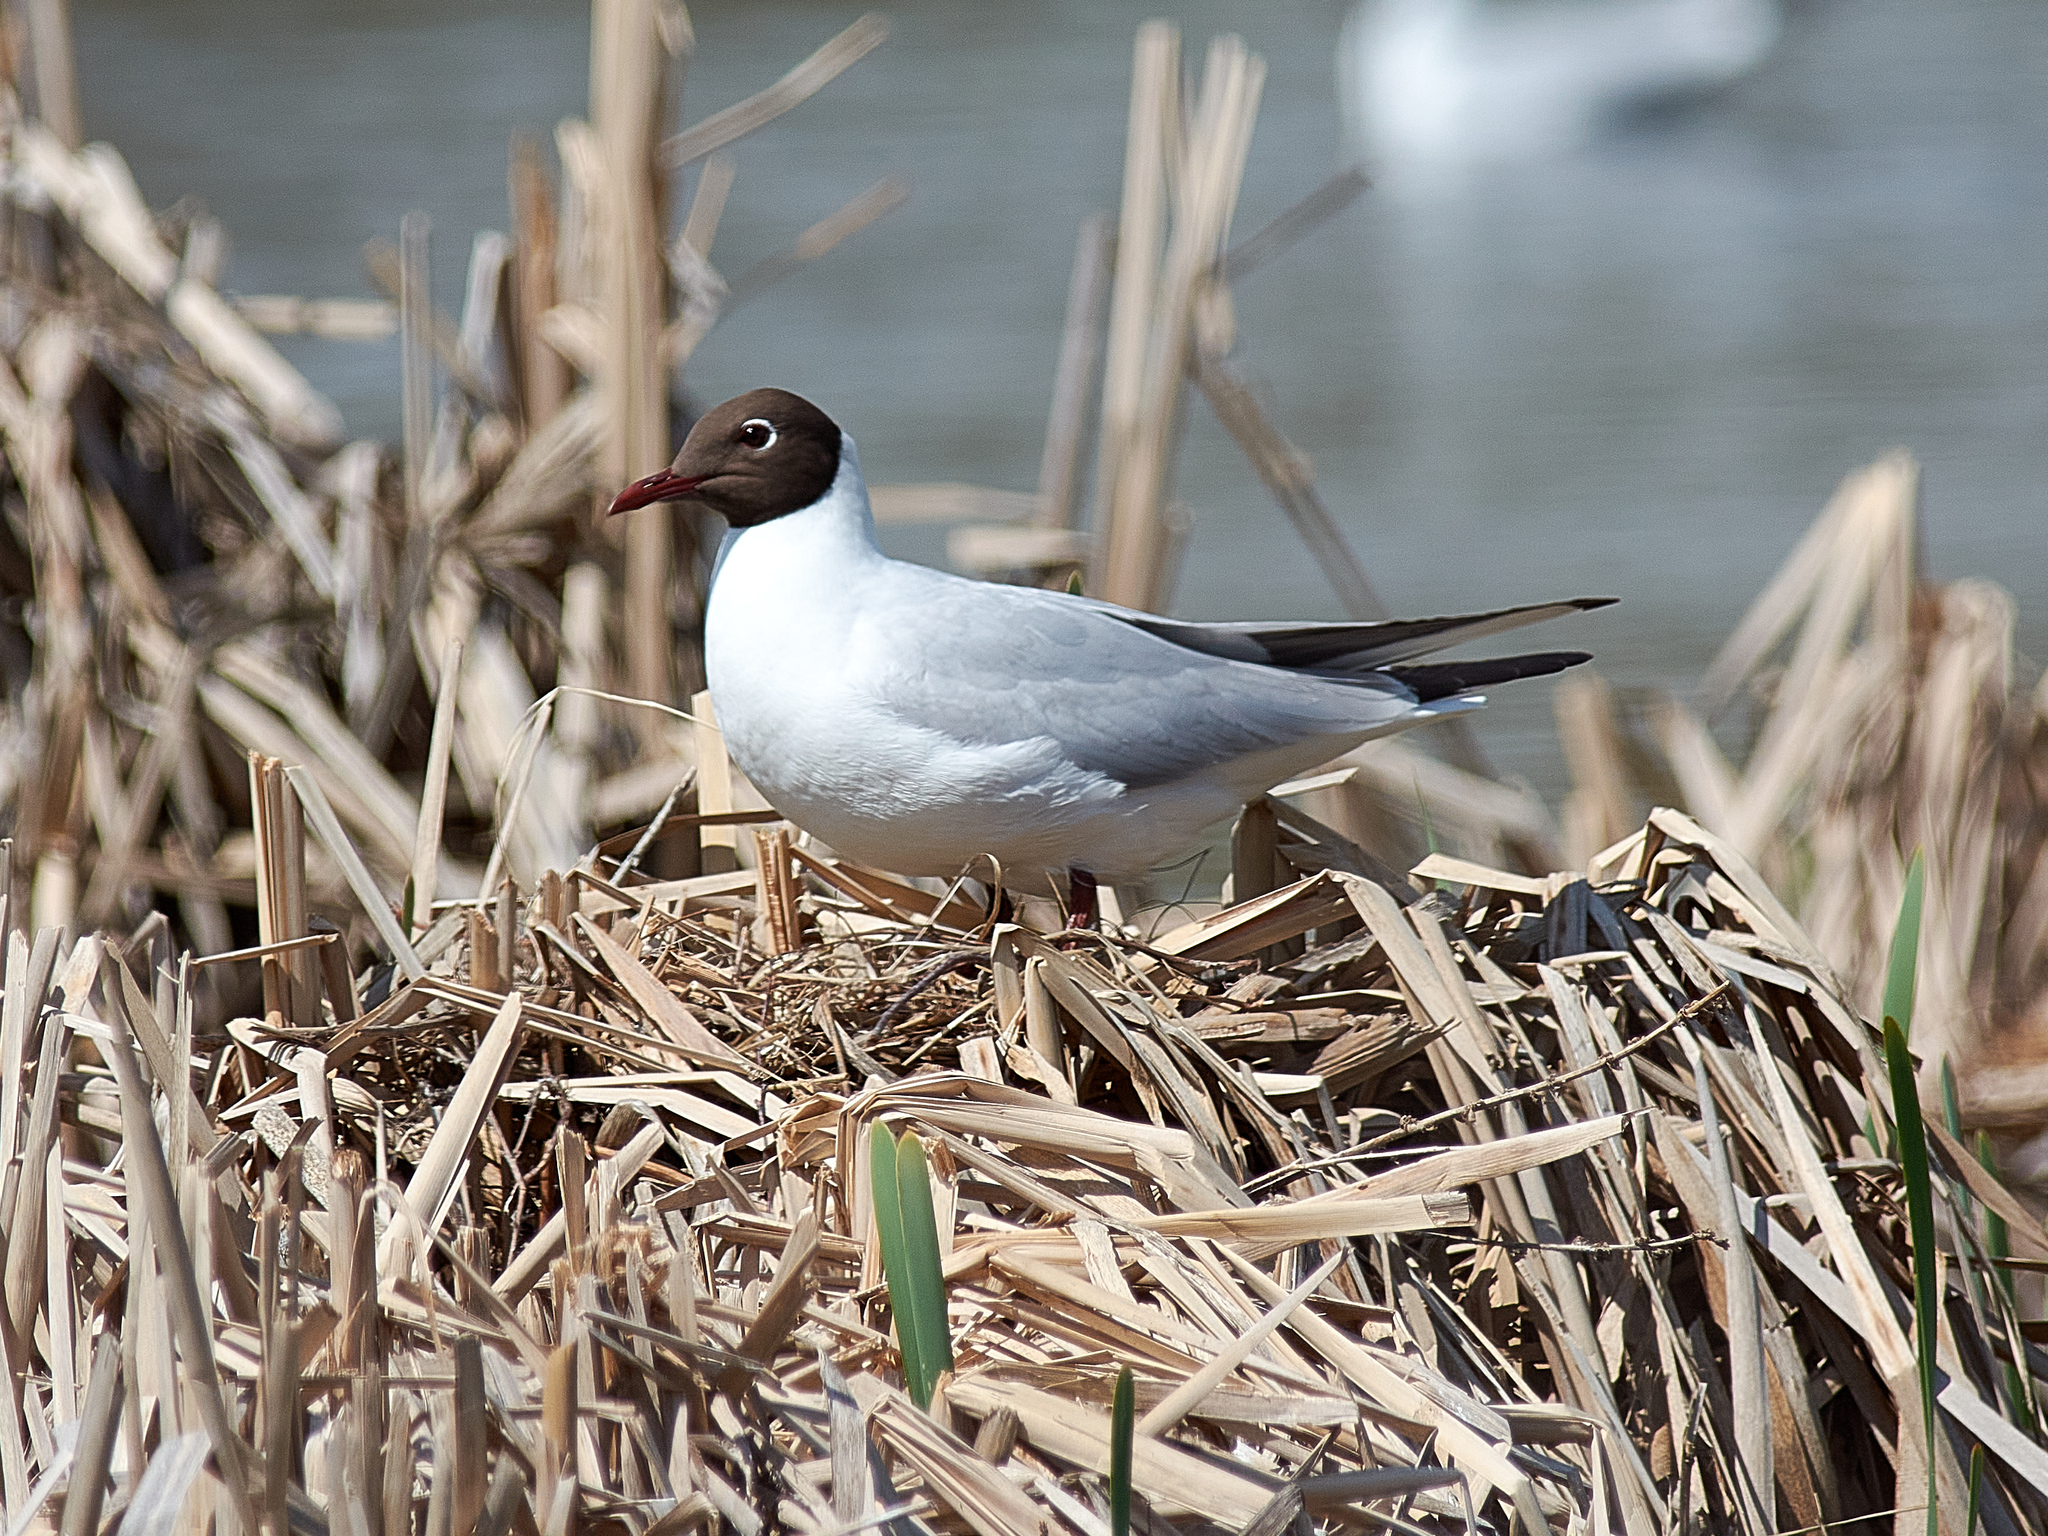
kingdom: Animalia
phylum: Chordata
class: Aves
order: Charadriiformes
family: Laridae
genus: Chroicocephalus
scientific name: Chroicocephalus ridibundus
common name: Black-headed gull
